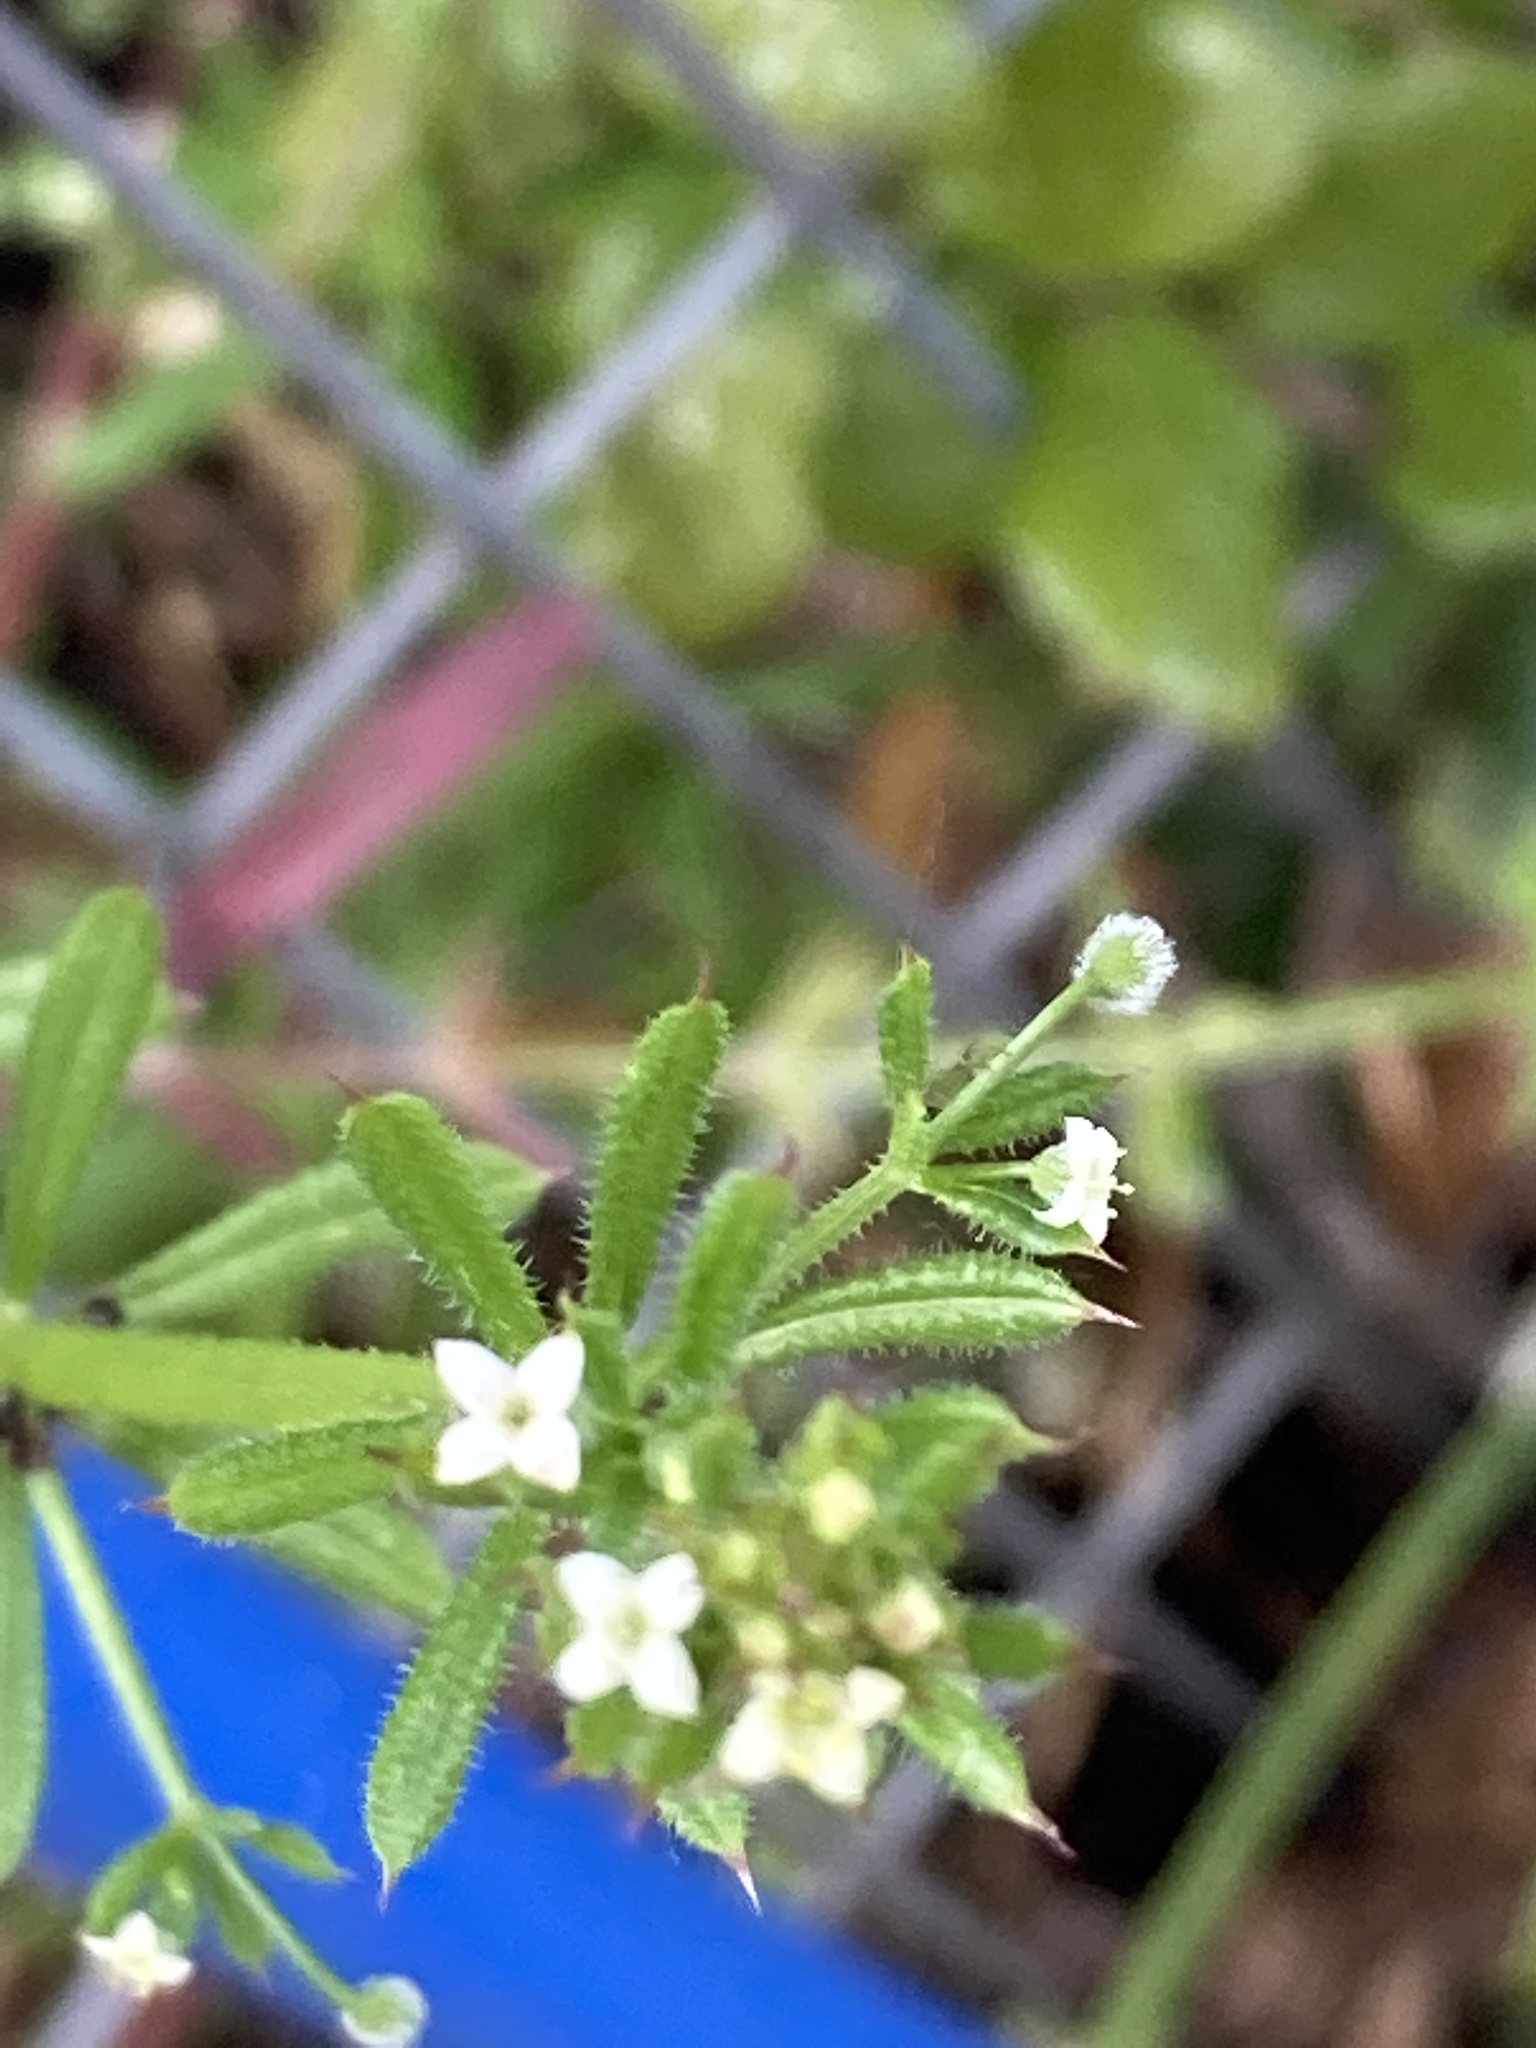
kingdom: Plantae
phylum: Tracheophyta
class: Magnoliopsida
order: Gentianales
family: Rubiaceae
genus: Galium
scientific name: Galium aparine
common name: Cleavers
